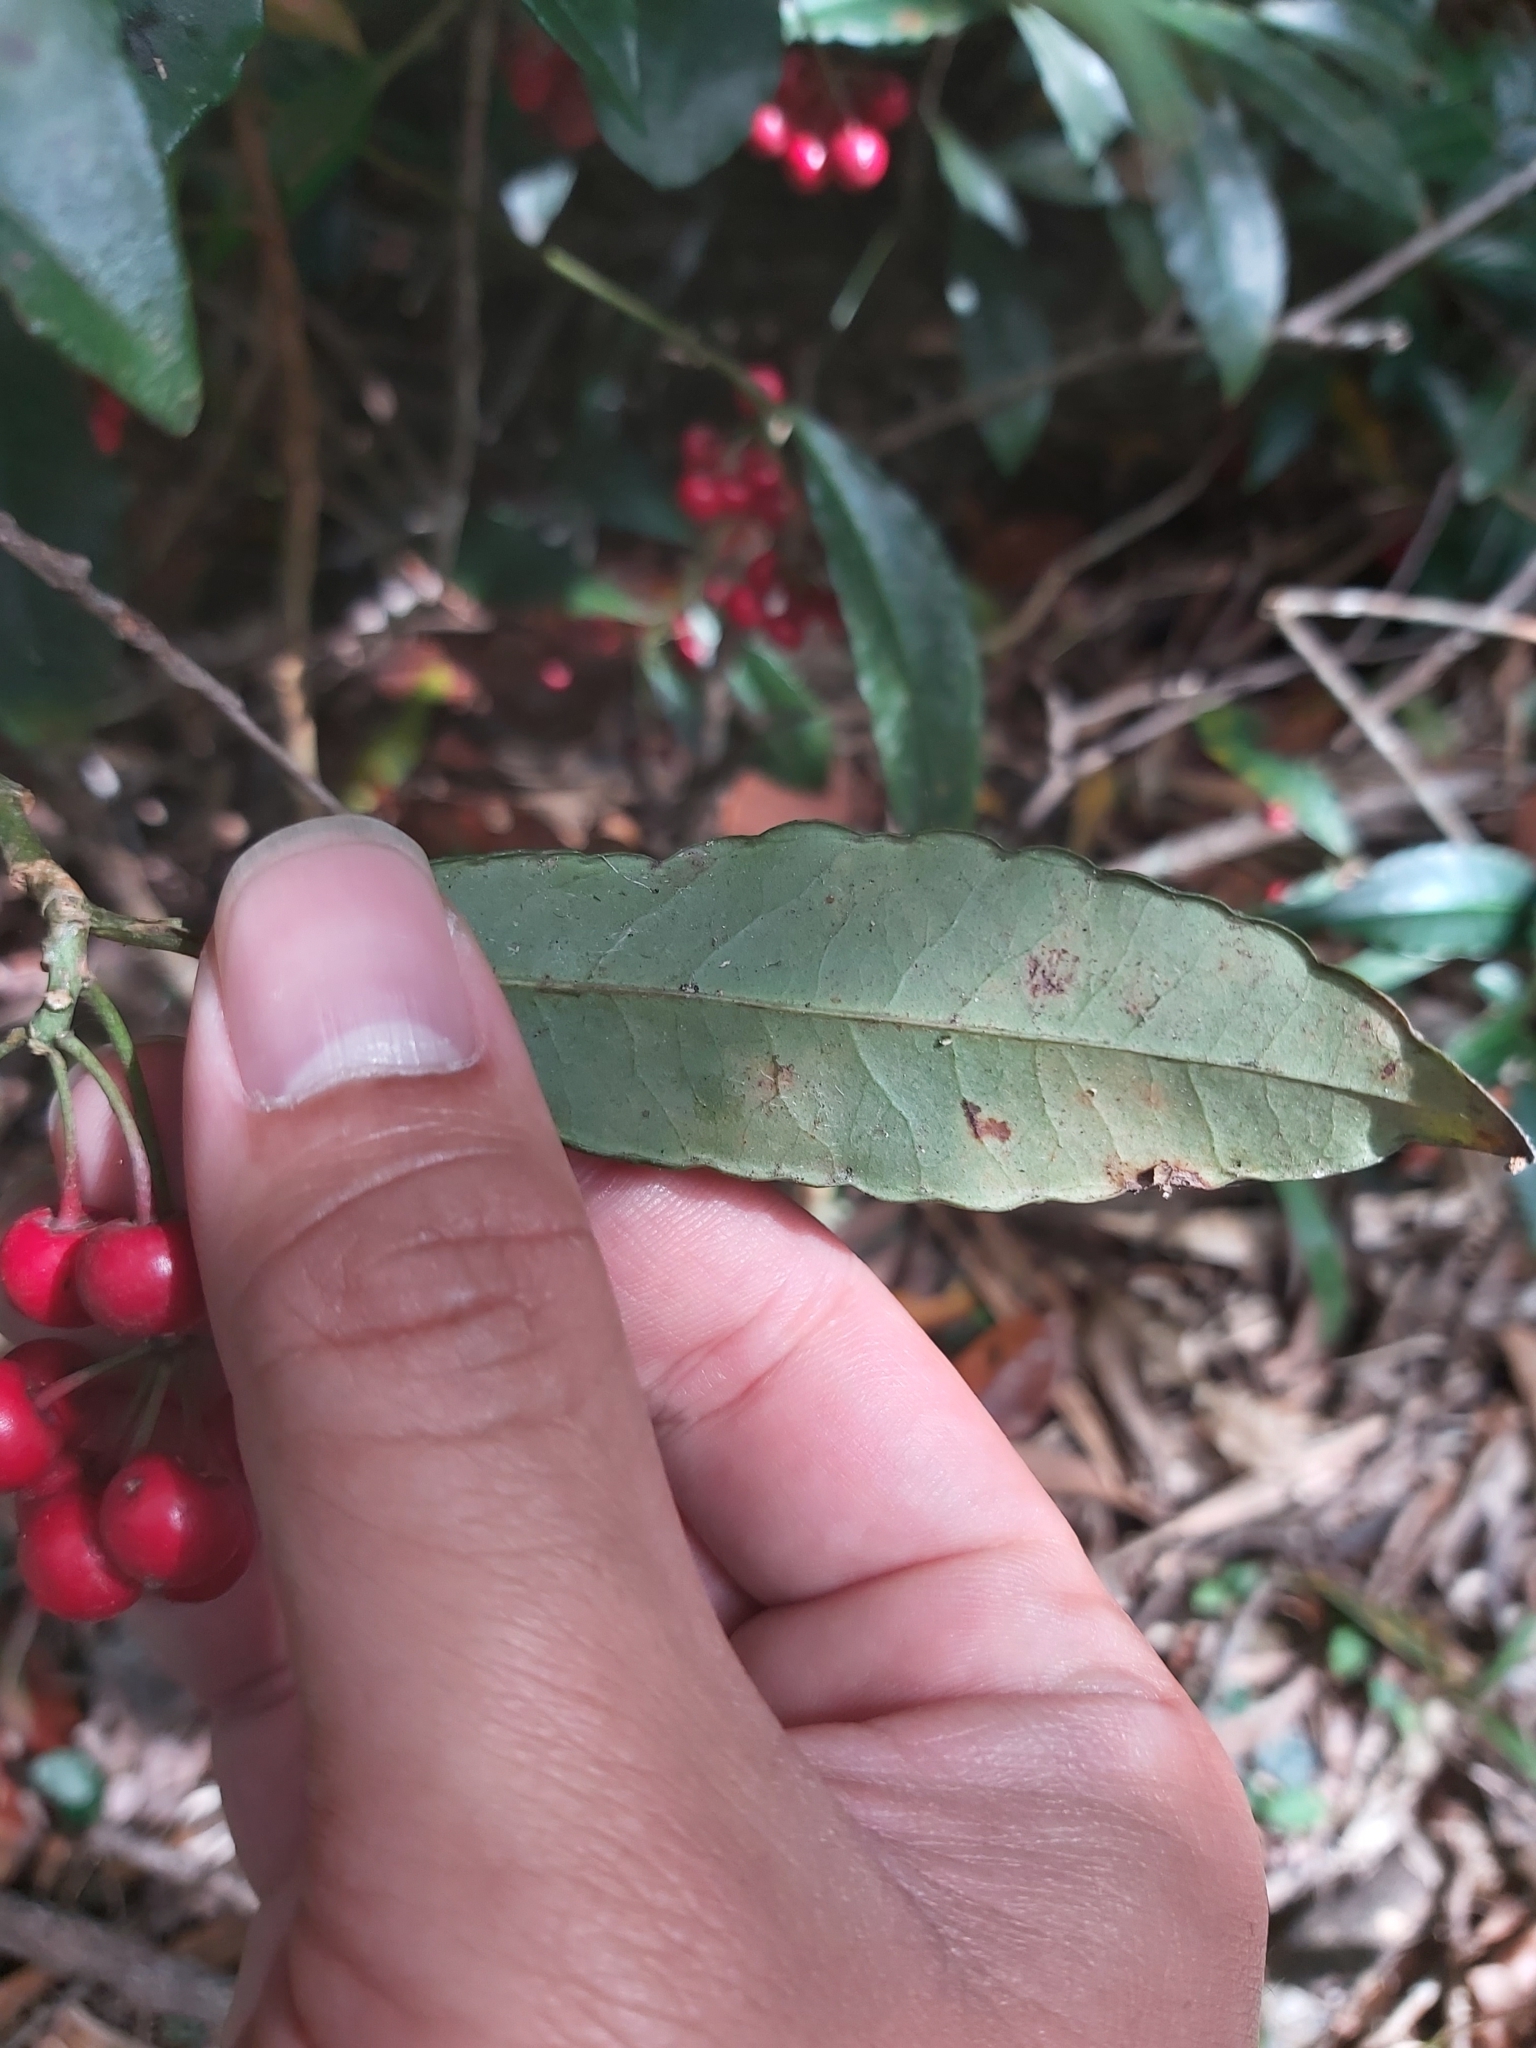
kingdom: Plantae
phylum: Tracheophyta
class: Magnoliopsida
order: Ericales
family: Primulaceae
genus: Ardisia
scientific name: Ardisia crenata
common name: Hen's eyes
